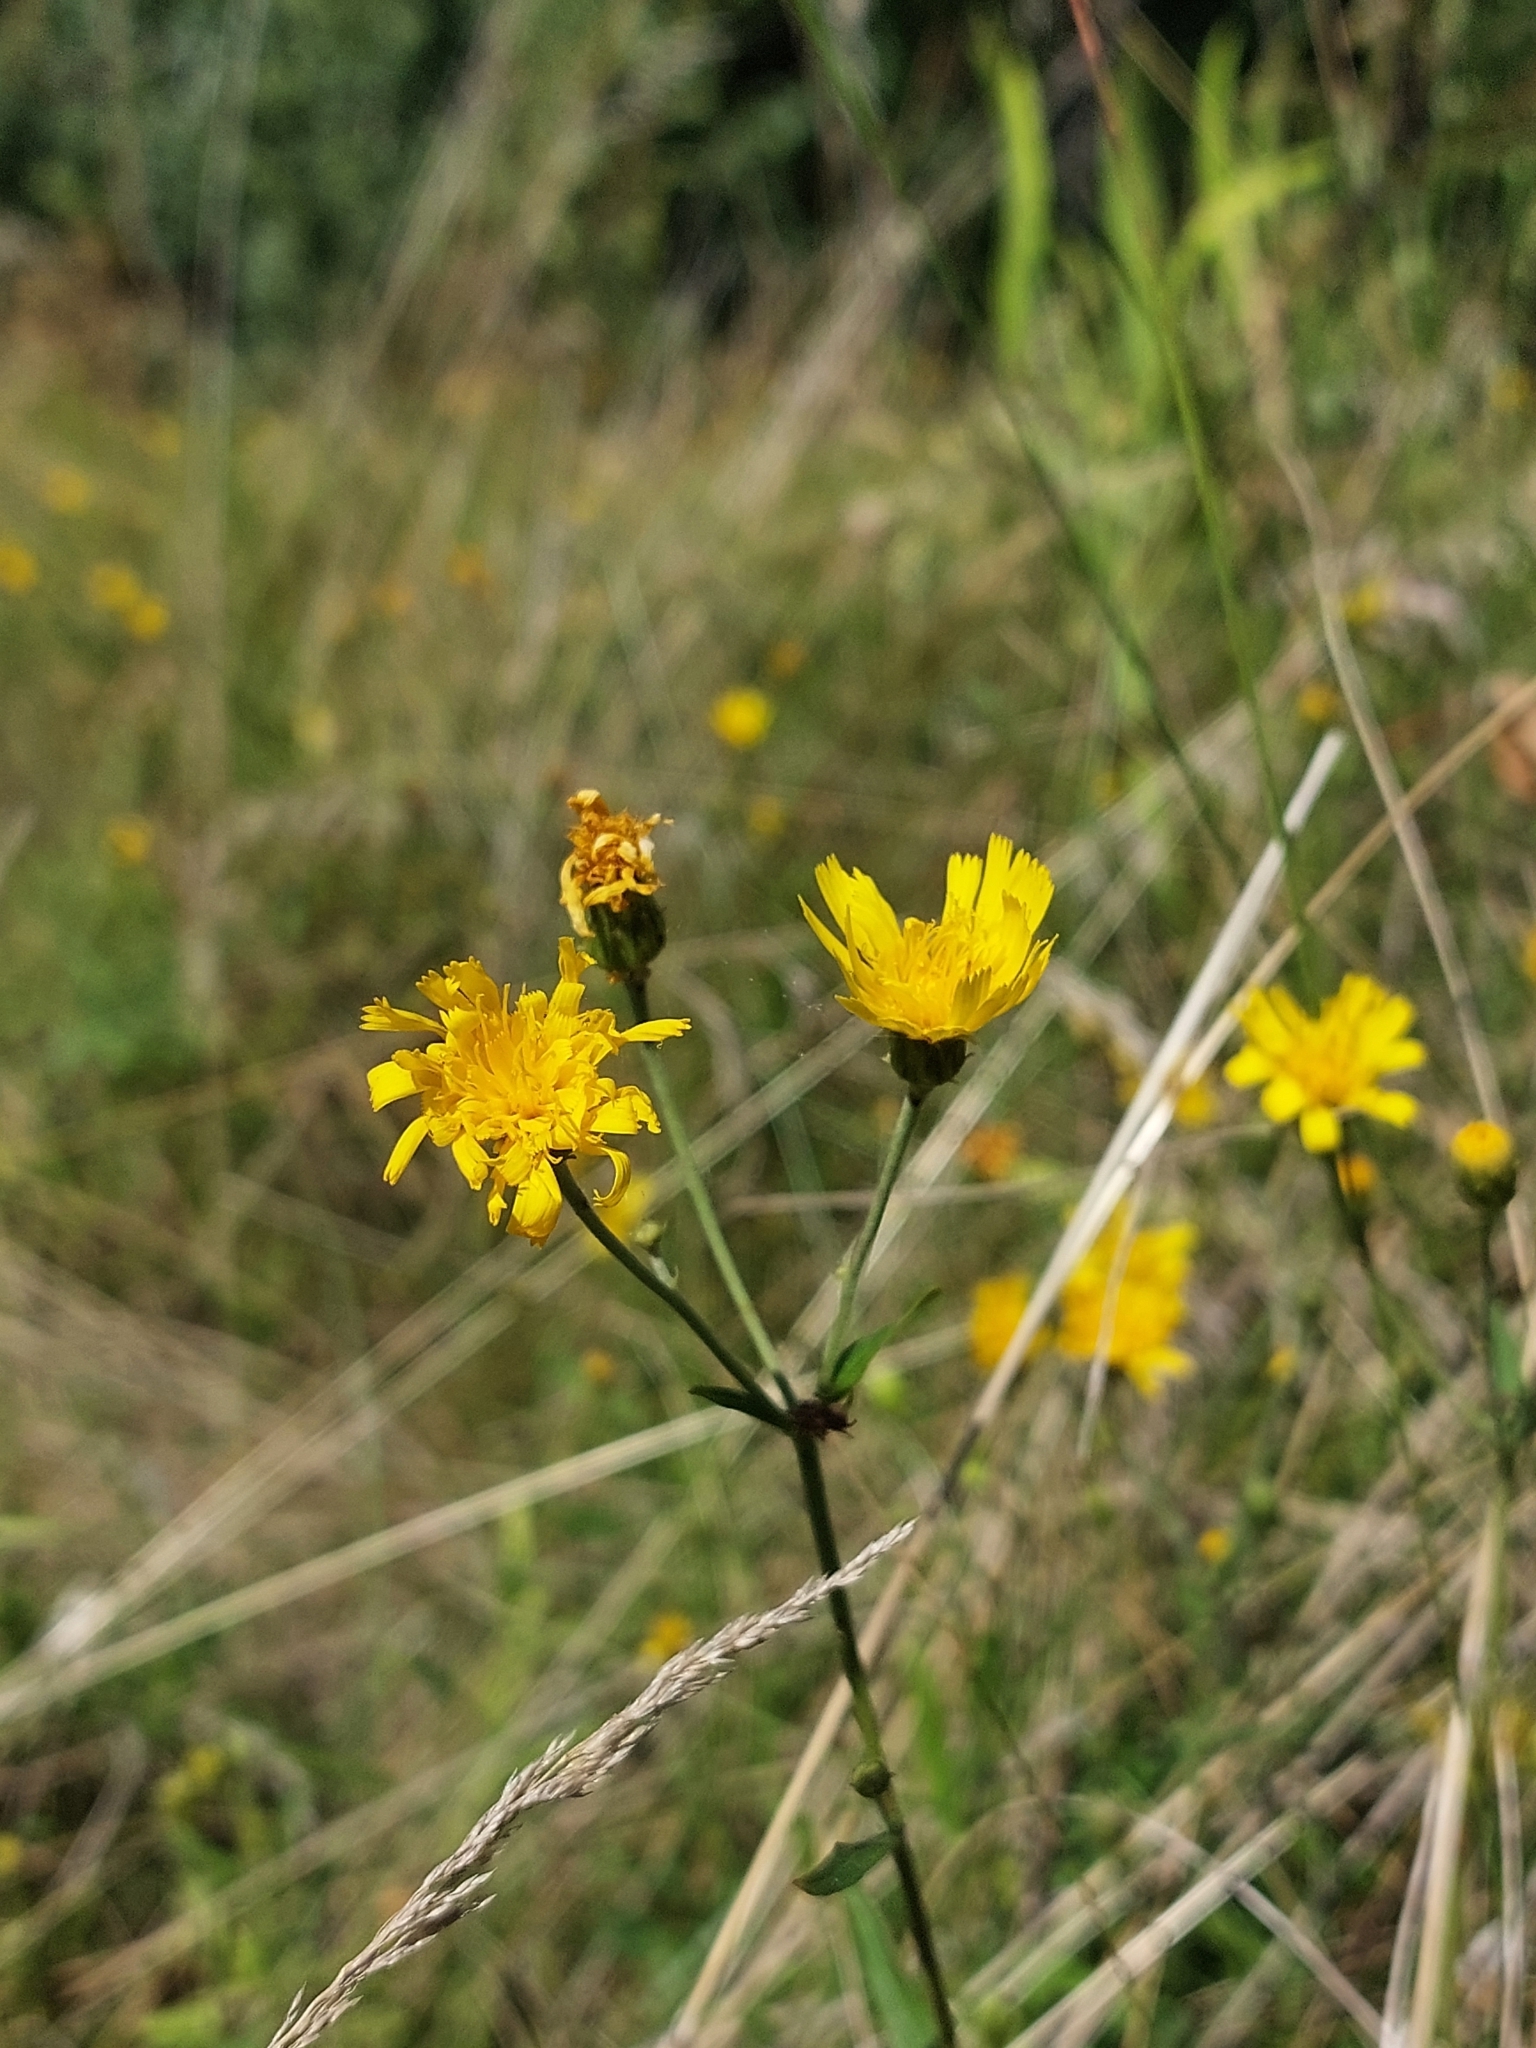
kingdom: Plantae
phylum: Tracheophyta
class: Magnoliopsida
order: Asterales
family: Asteraceae
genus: Hieracium
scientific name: Hieracium umbellatum
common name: Northern hawkweed
